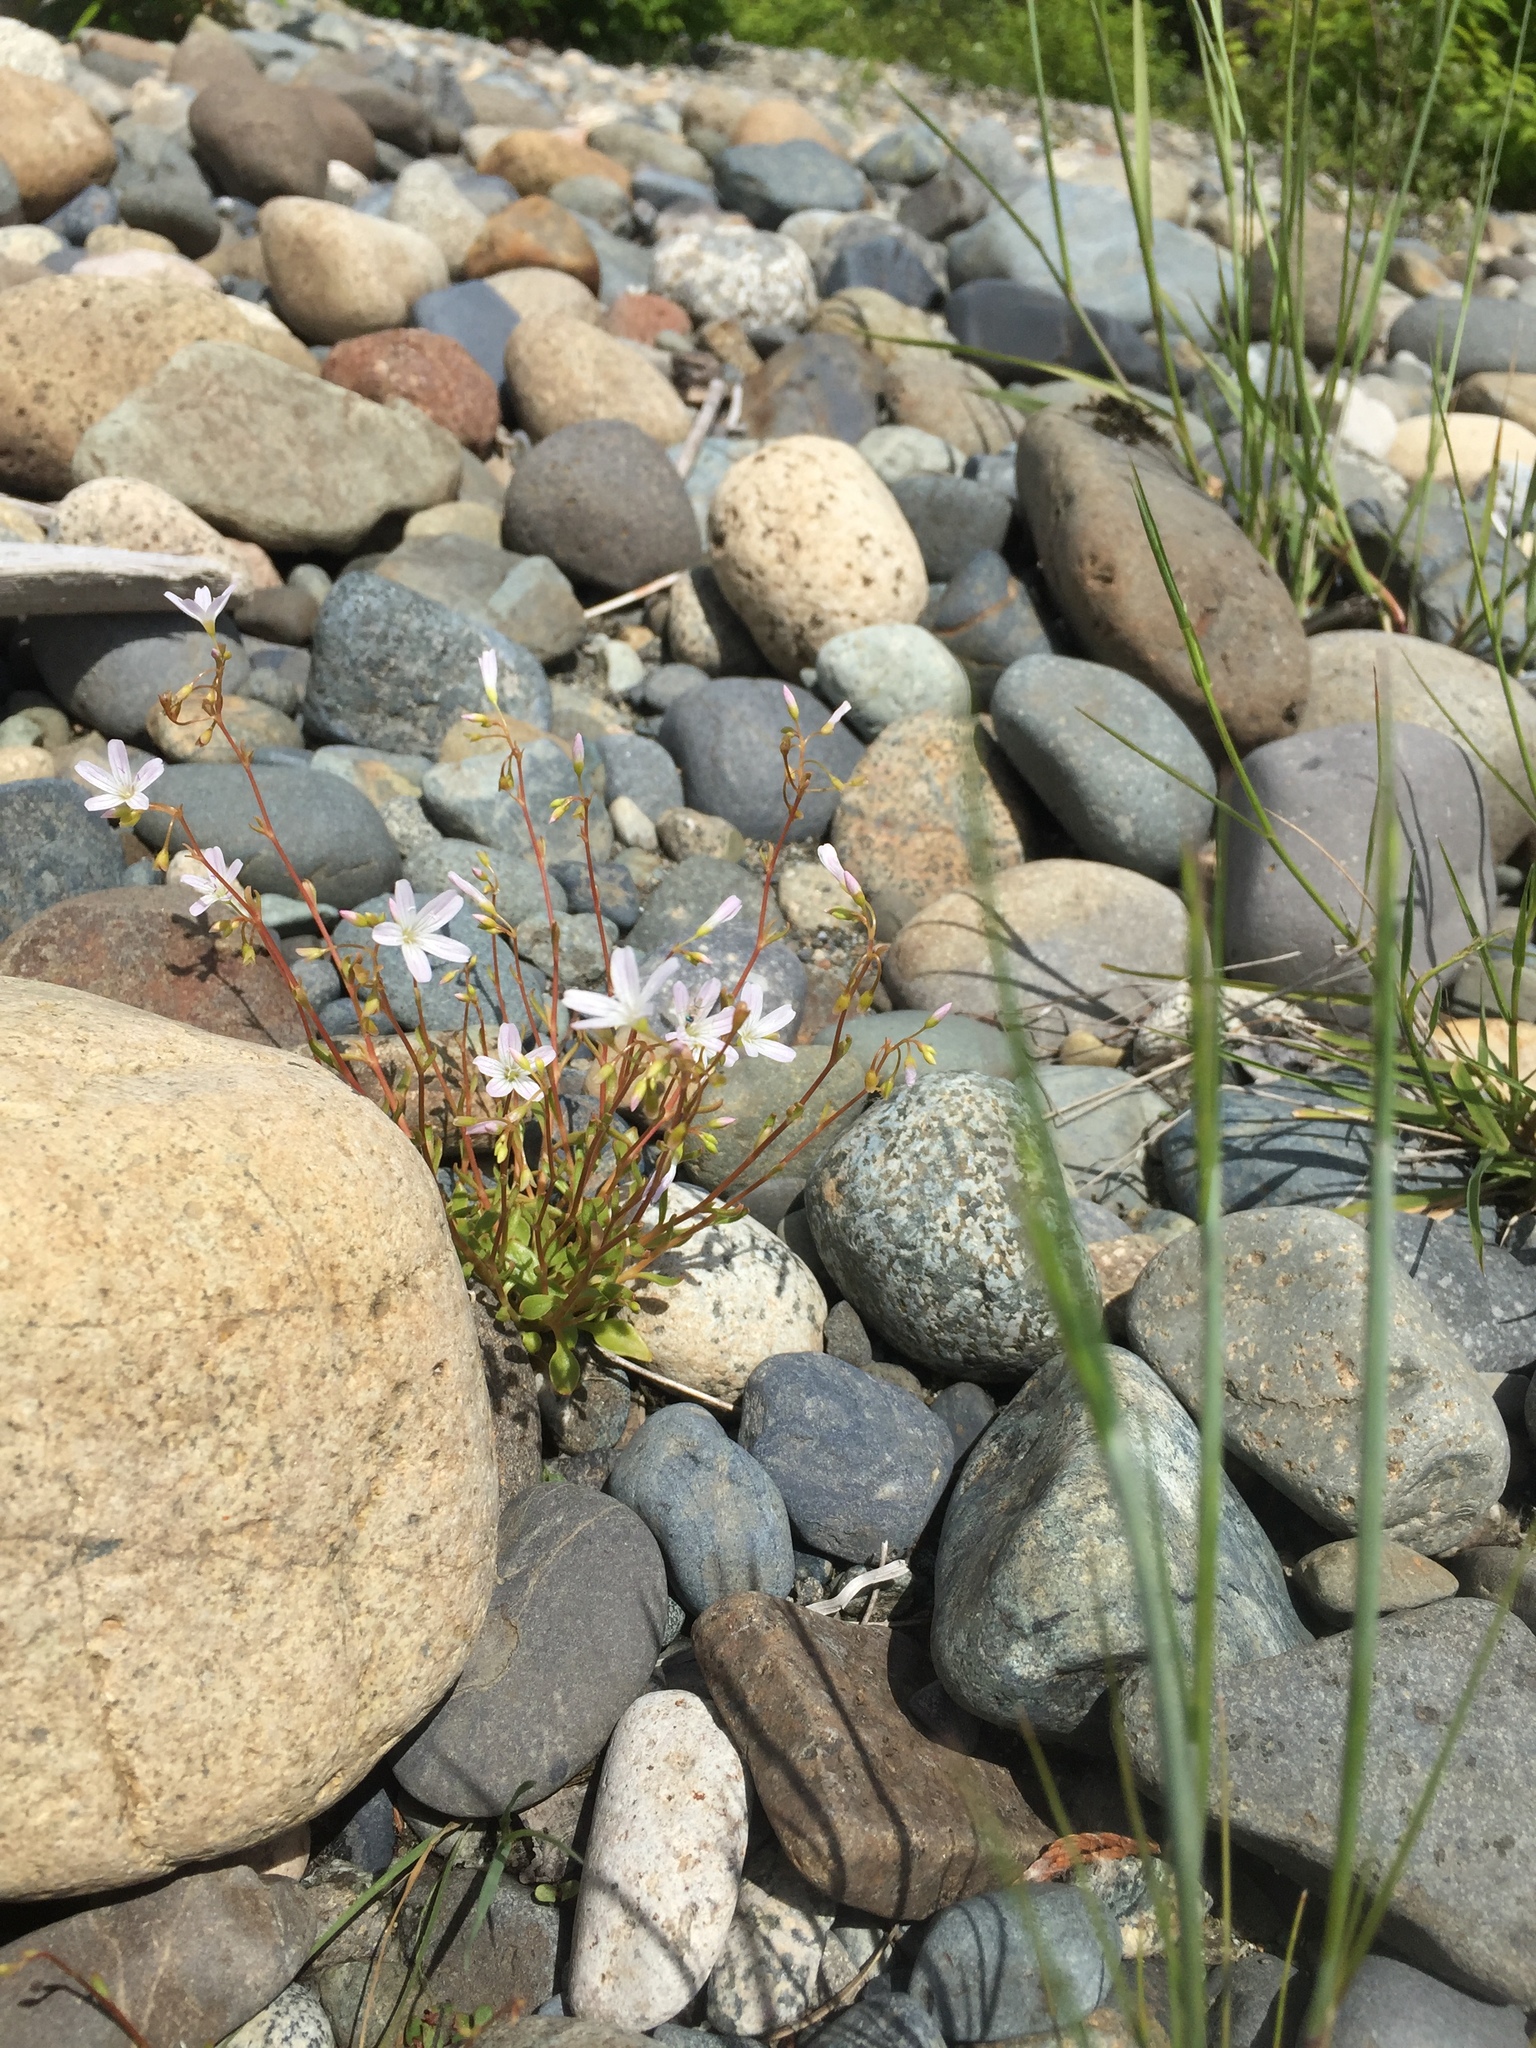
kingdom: Plantae
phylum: Tracheophyta
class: Magnoliopsida
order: Caryophyllales
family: Montiaceae
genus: Montia
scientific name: Montia parvifolia
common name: Small-leaved blinks
